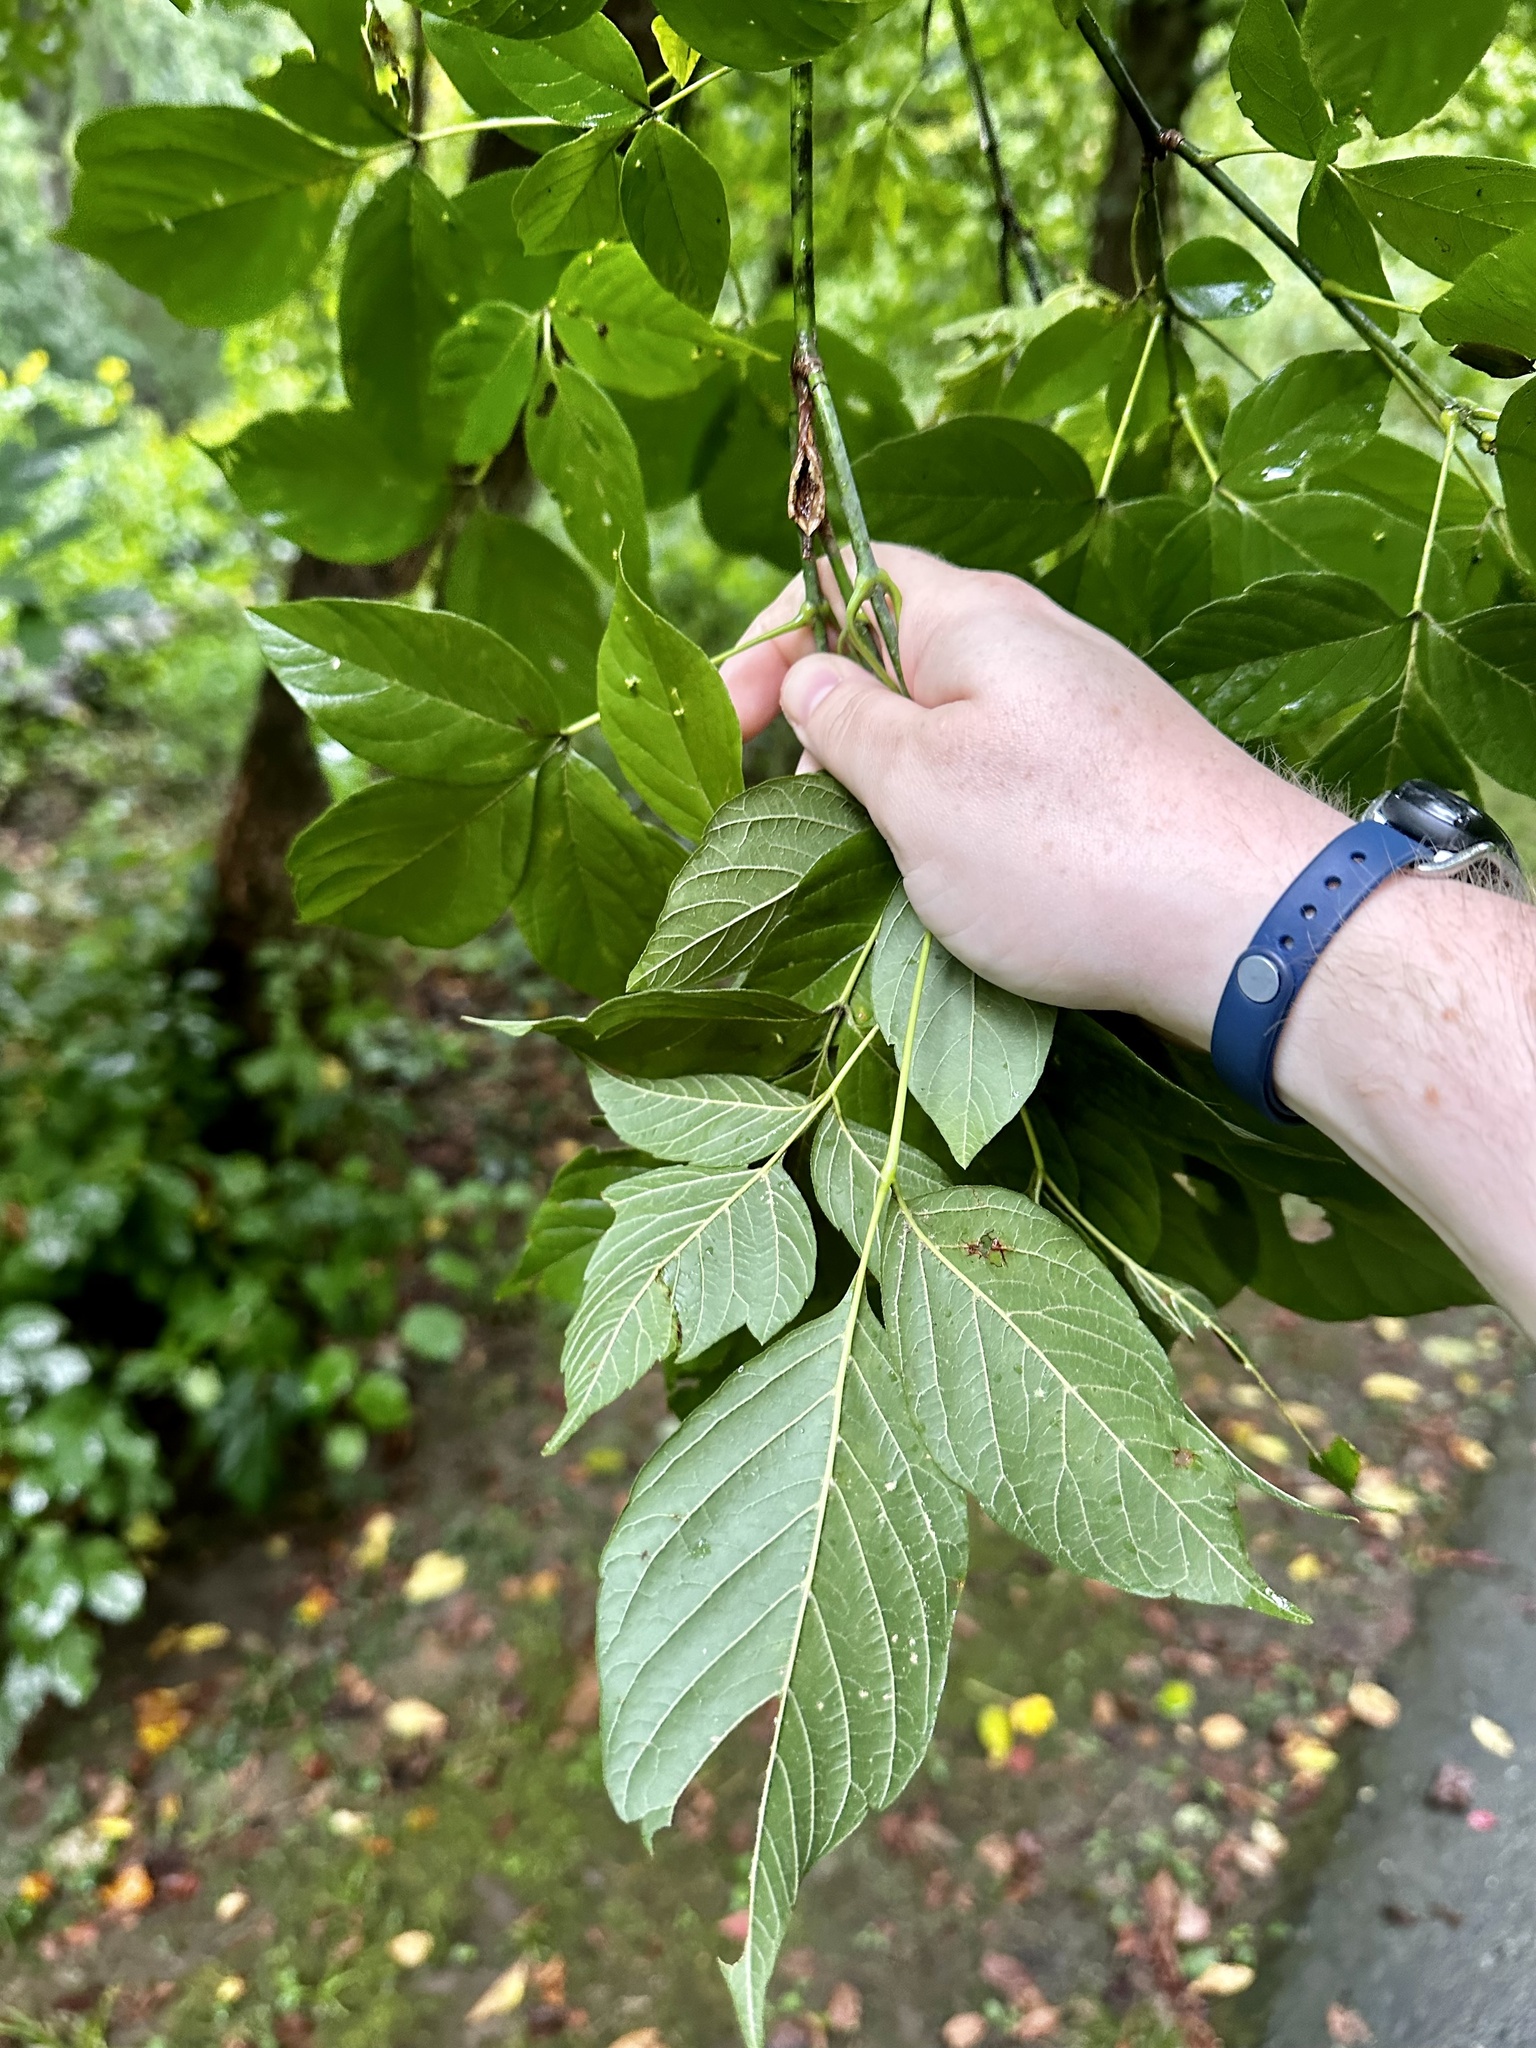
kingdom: Plantae
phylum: Tracheophyta
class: Magnoliopsida
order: Sapindales
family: Sapindaceae
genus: Acer
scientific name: Acer negundo
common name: Ashleaf maple
